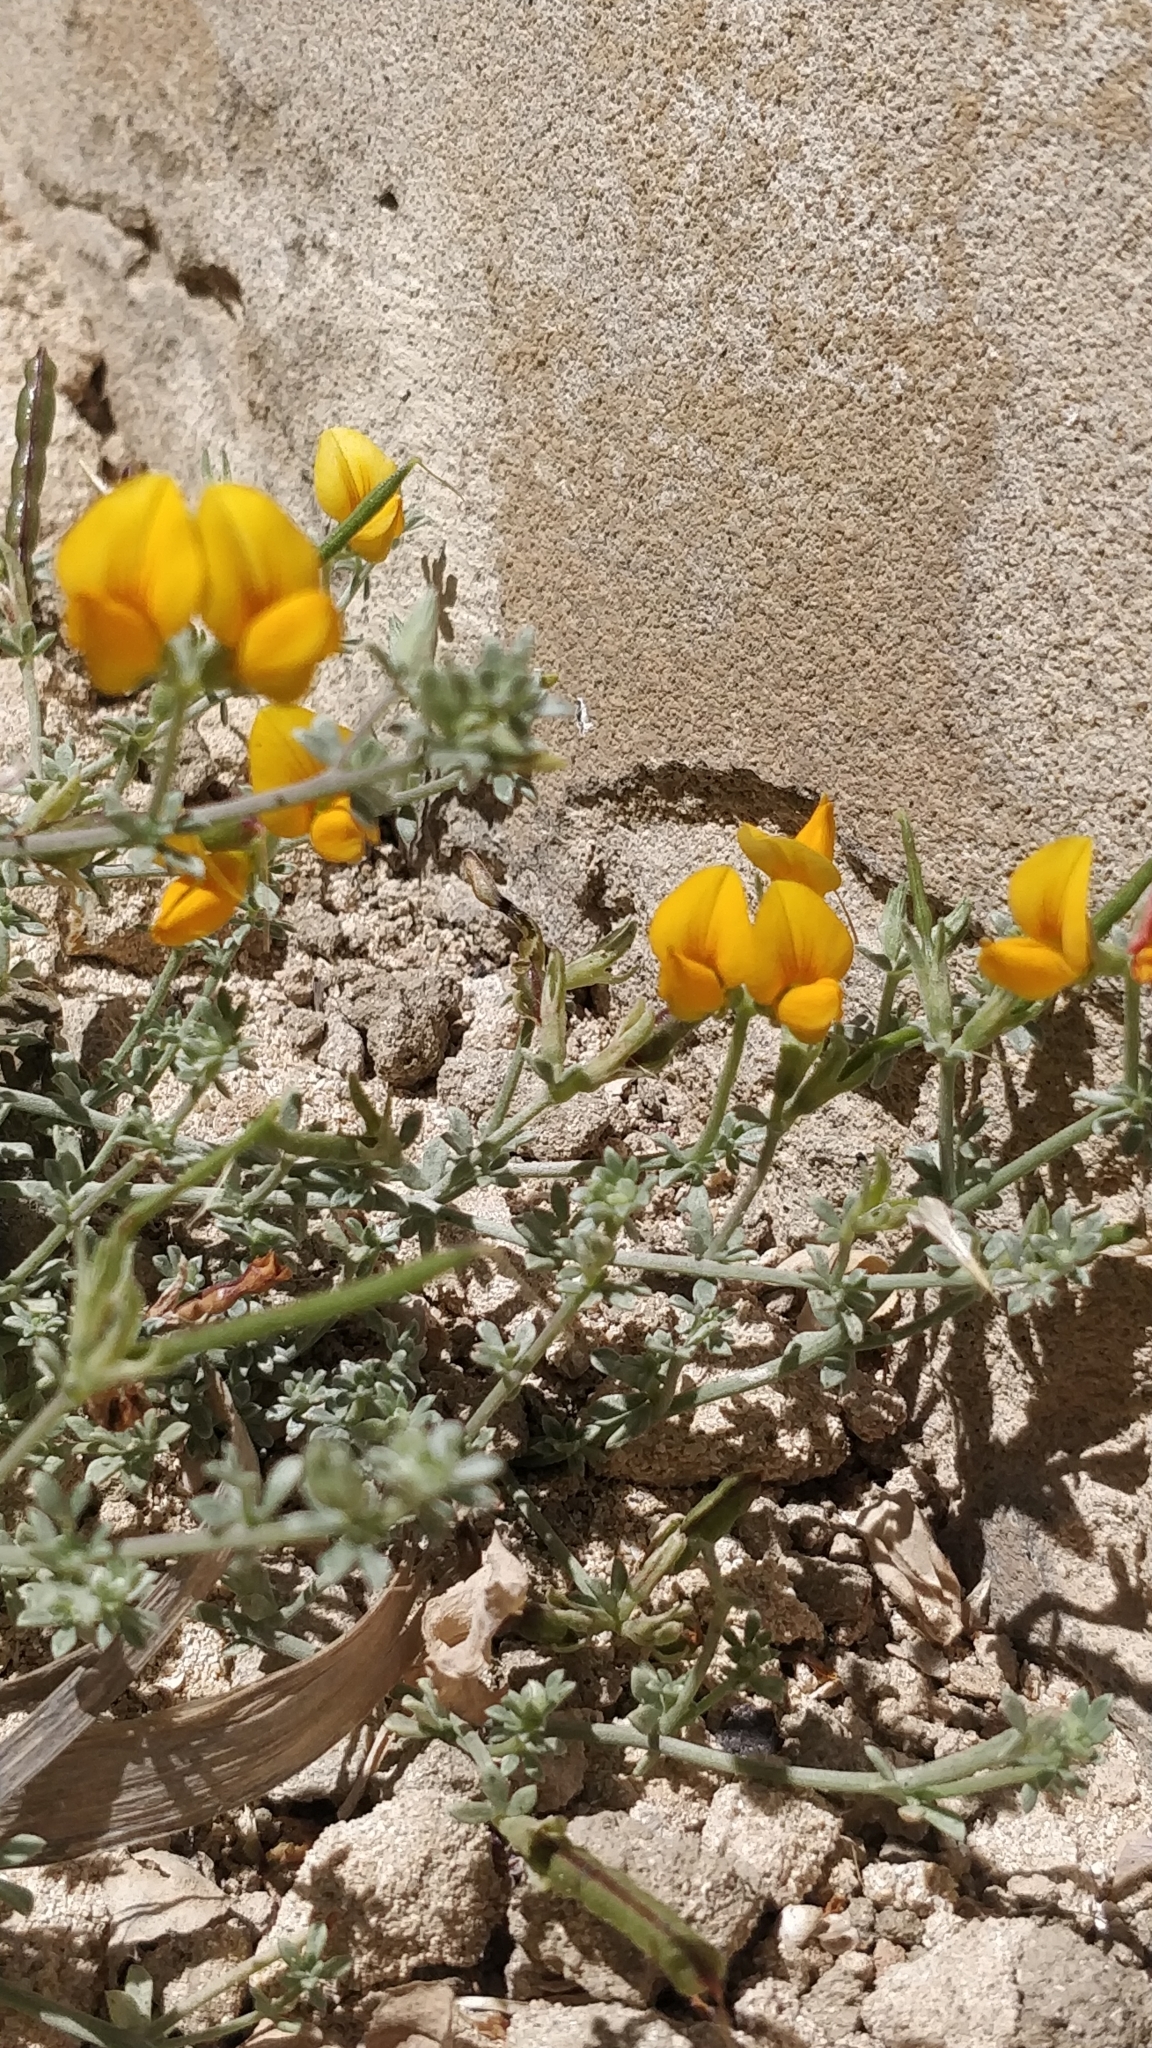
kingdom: Plantae
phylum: Tracheophyta
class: Magnoliopsida
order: Fabales
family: Fabaceae
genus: Lotus
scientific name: Lotus glaucus
